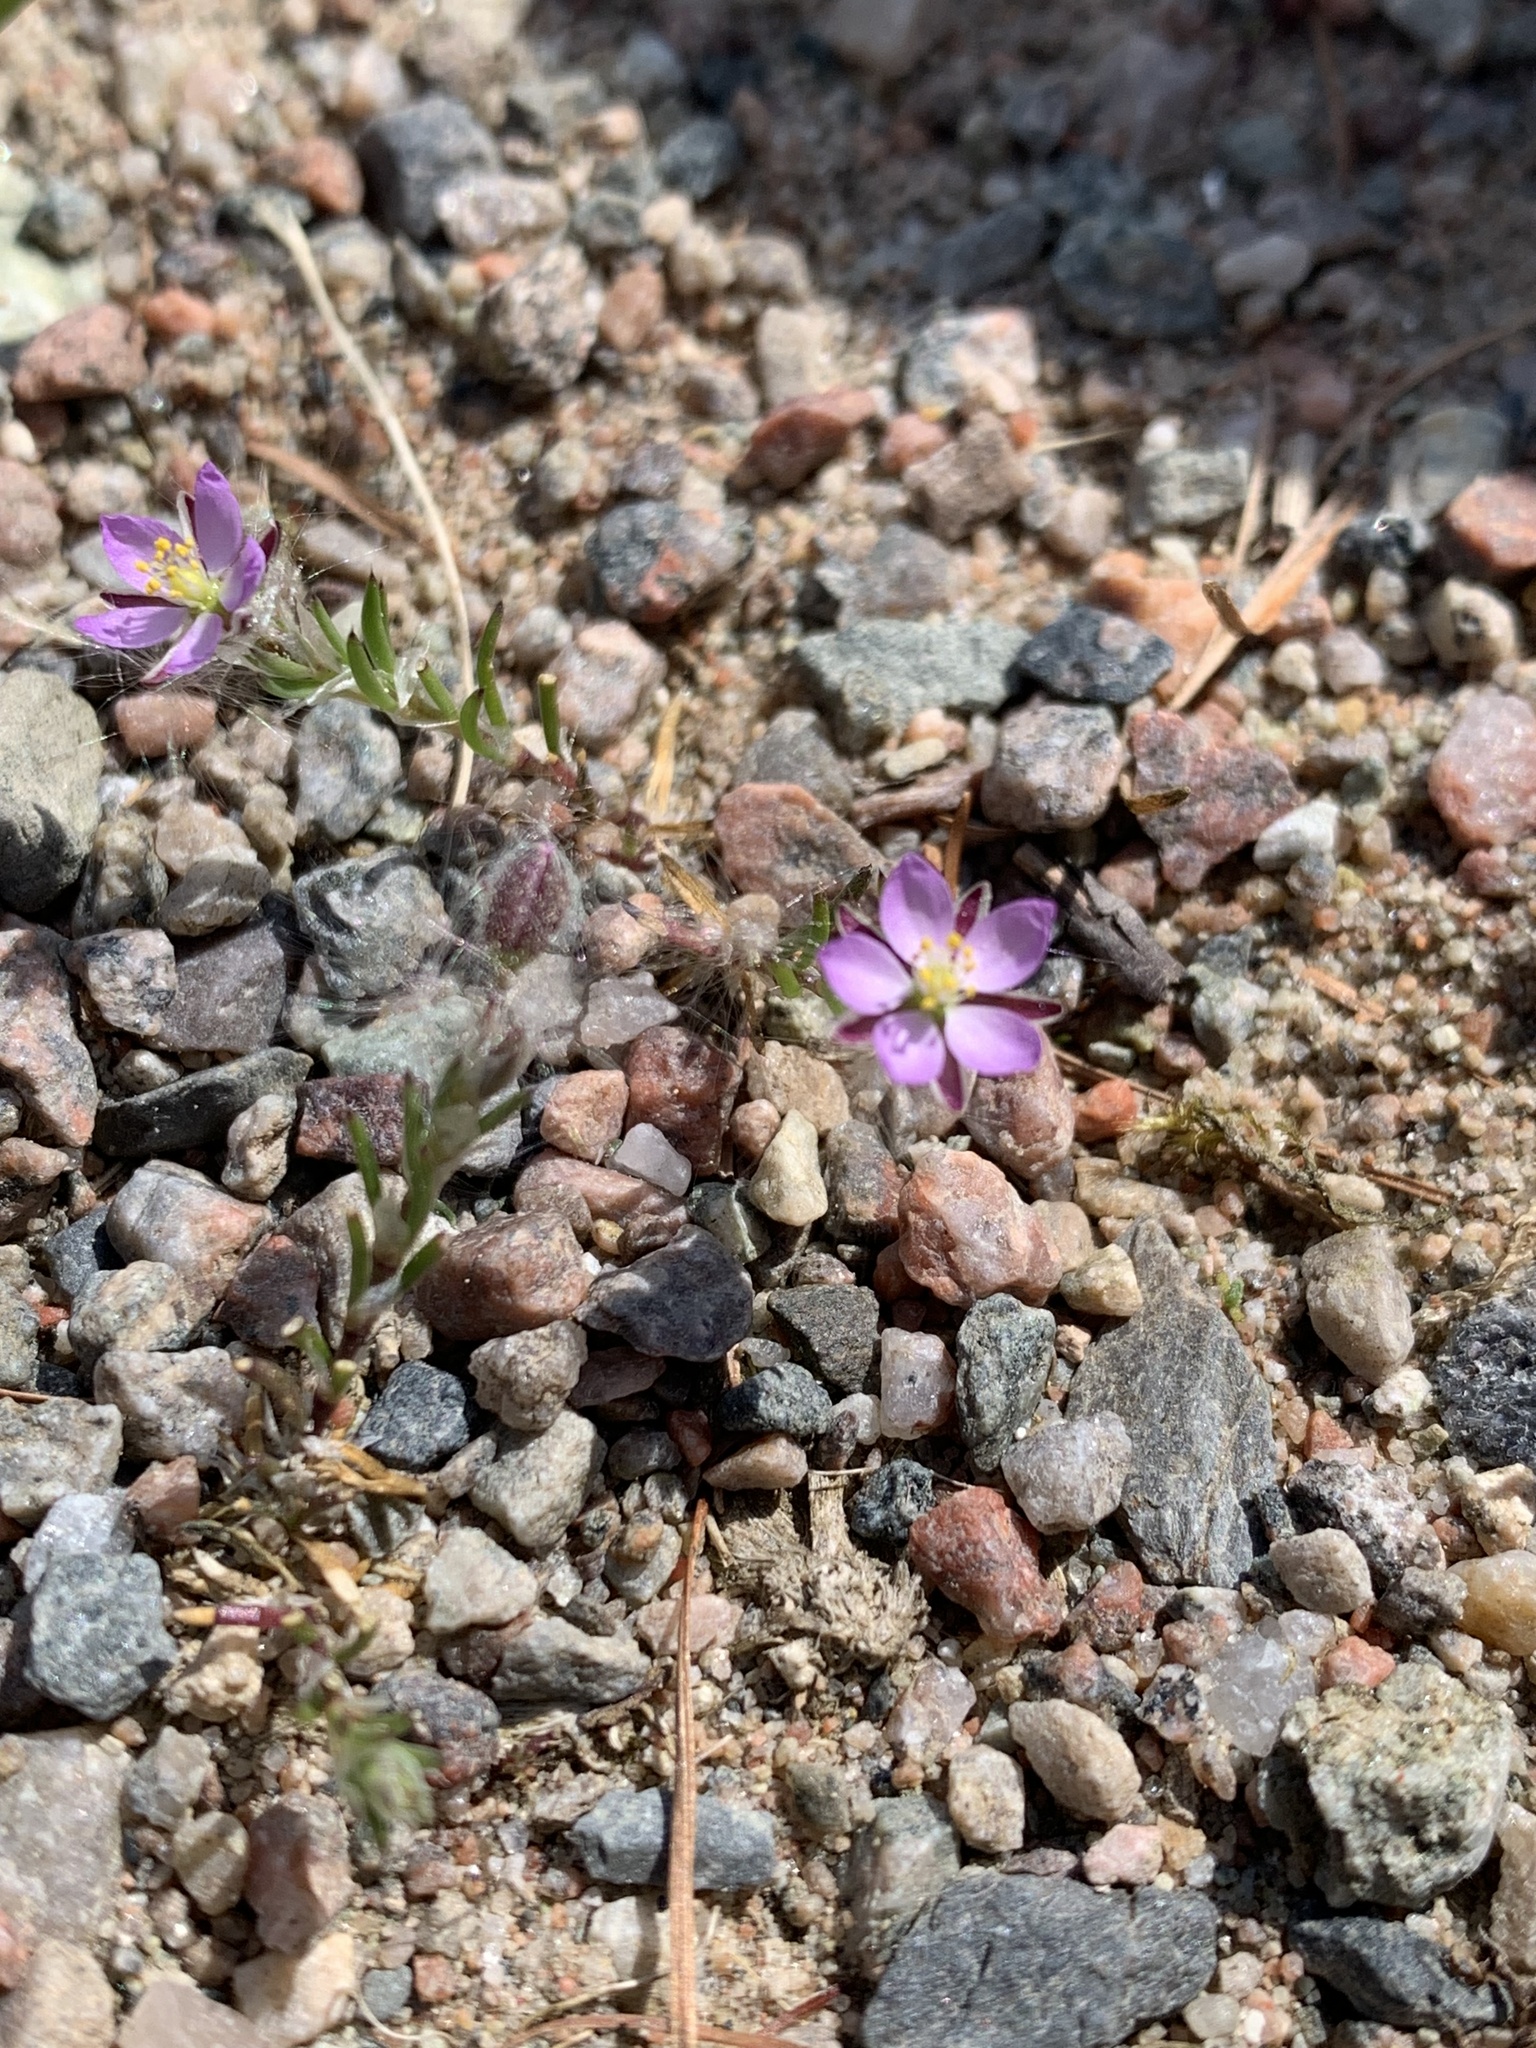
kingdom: Plantae
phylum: Tracheophyta
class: Magnoliopsida
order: Caryophyllales
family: Caryophyllaceae
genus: Spergularia
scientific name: Spergularia rubra
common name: Red sand-spurrey
